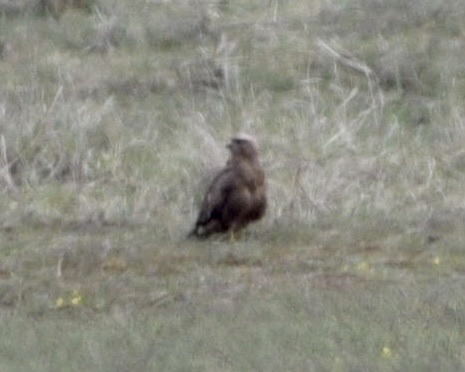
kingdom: Animalia
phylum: Chordata
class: Aves
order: Accipitriformes
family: Accipitridae
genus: Buteo
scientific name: Buteo buteo
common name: Common buzzard
